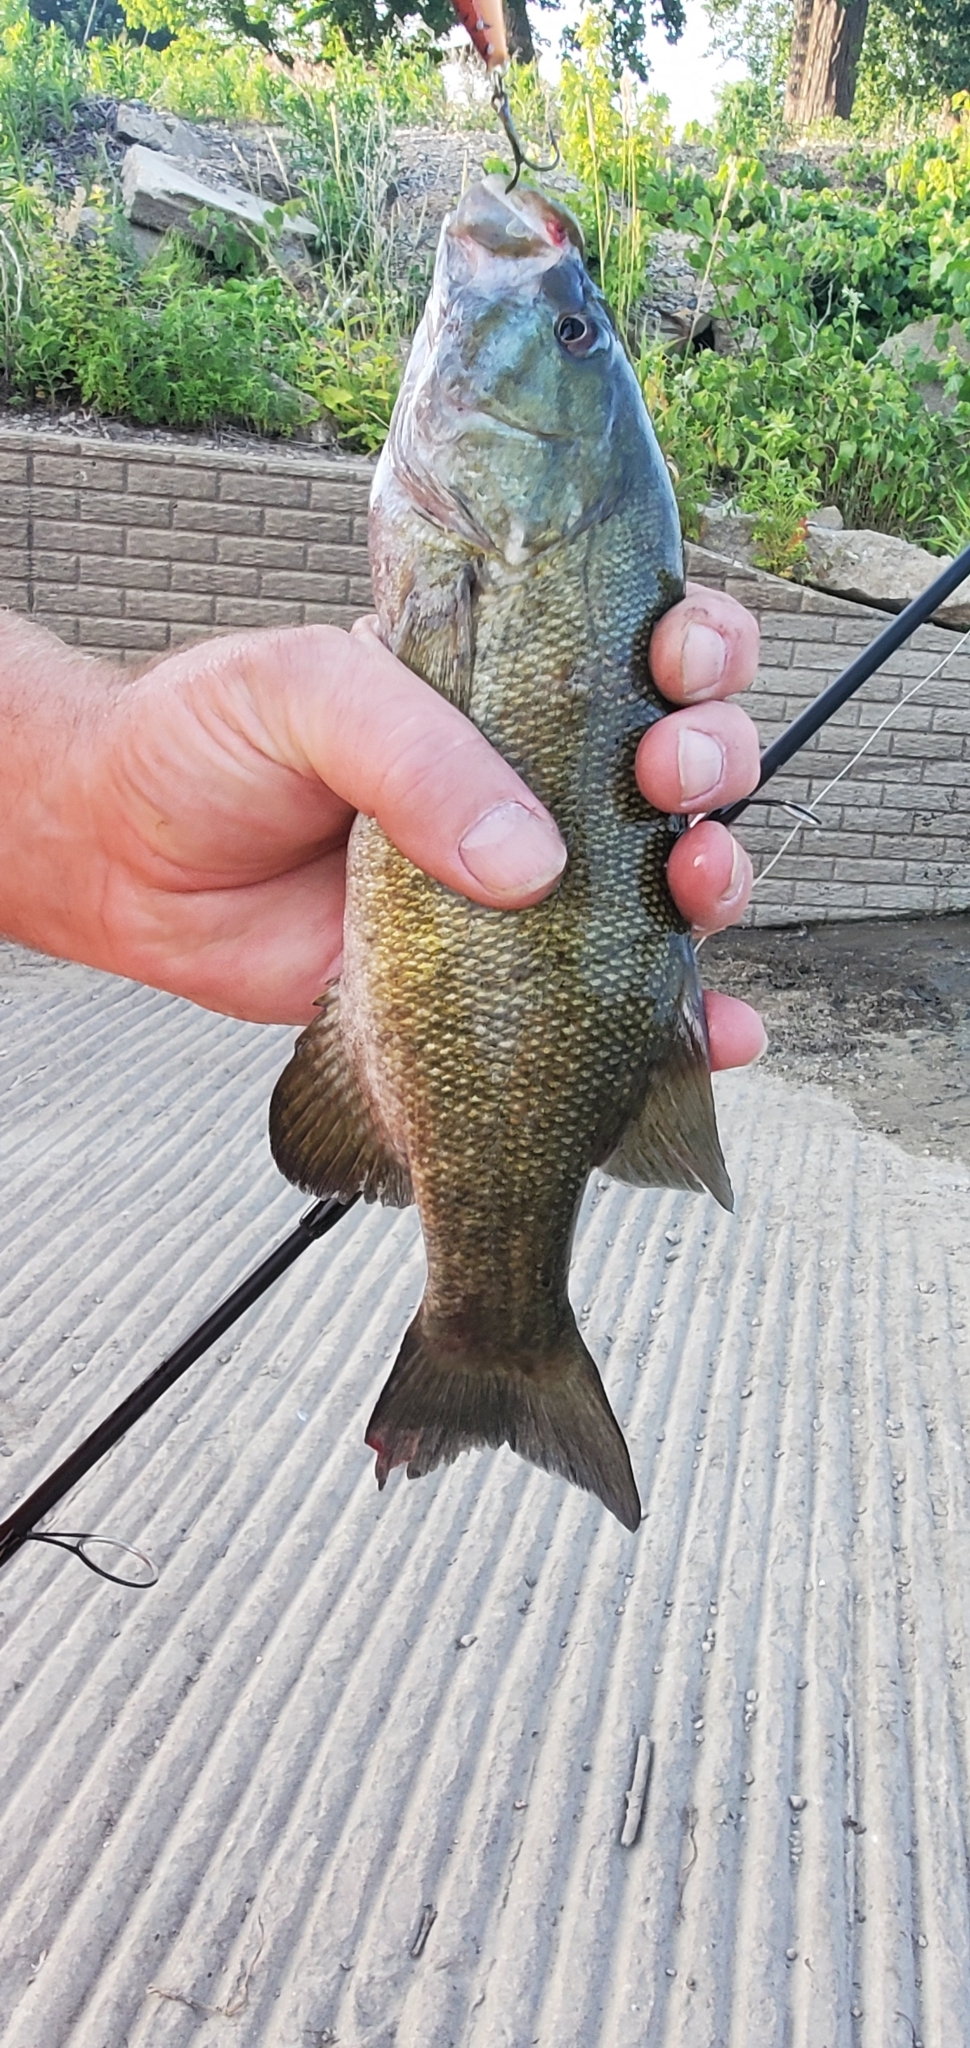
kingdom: Animalia
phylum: Chordata
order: Perciformes
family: Centrarchidae
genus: Micropterus
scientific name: Micropterus dolomieu
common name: Smallmouth bass
